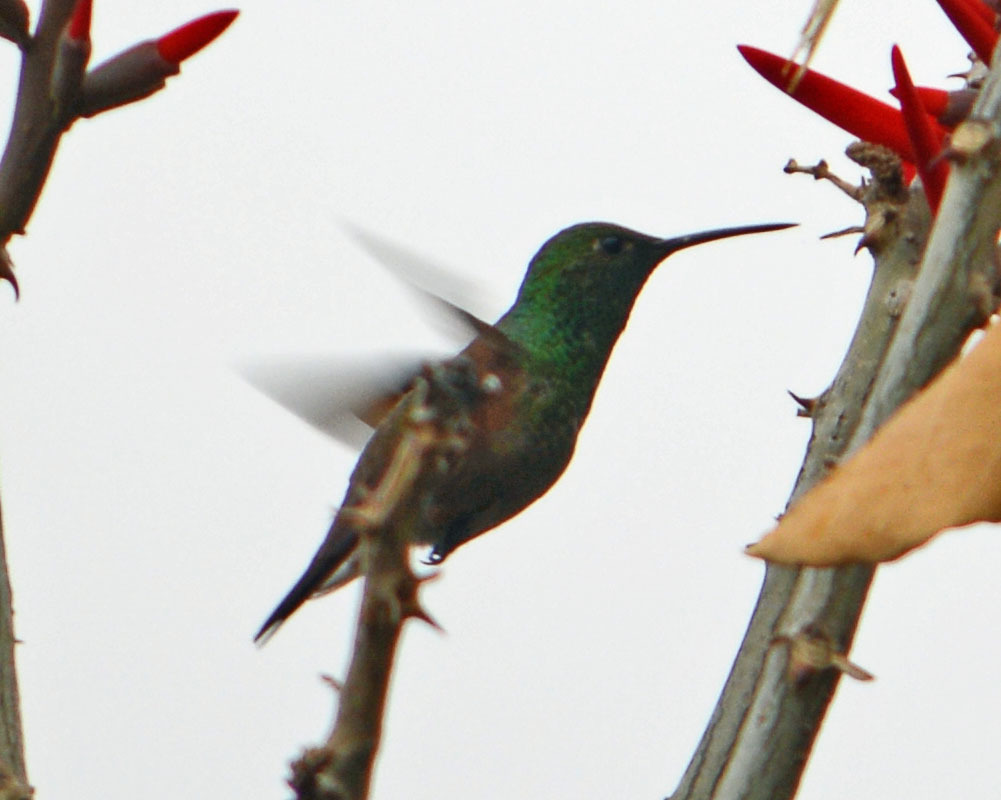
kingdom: Animalia
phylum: Chordata
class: Aves
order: Apodiformes
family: Trochilidae
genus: Saucerottia
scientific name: Saucerottia beryllina
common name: Berylline hummingbird
